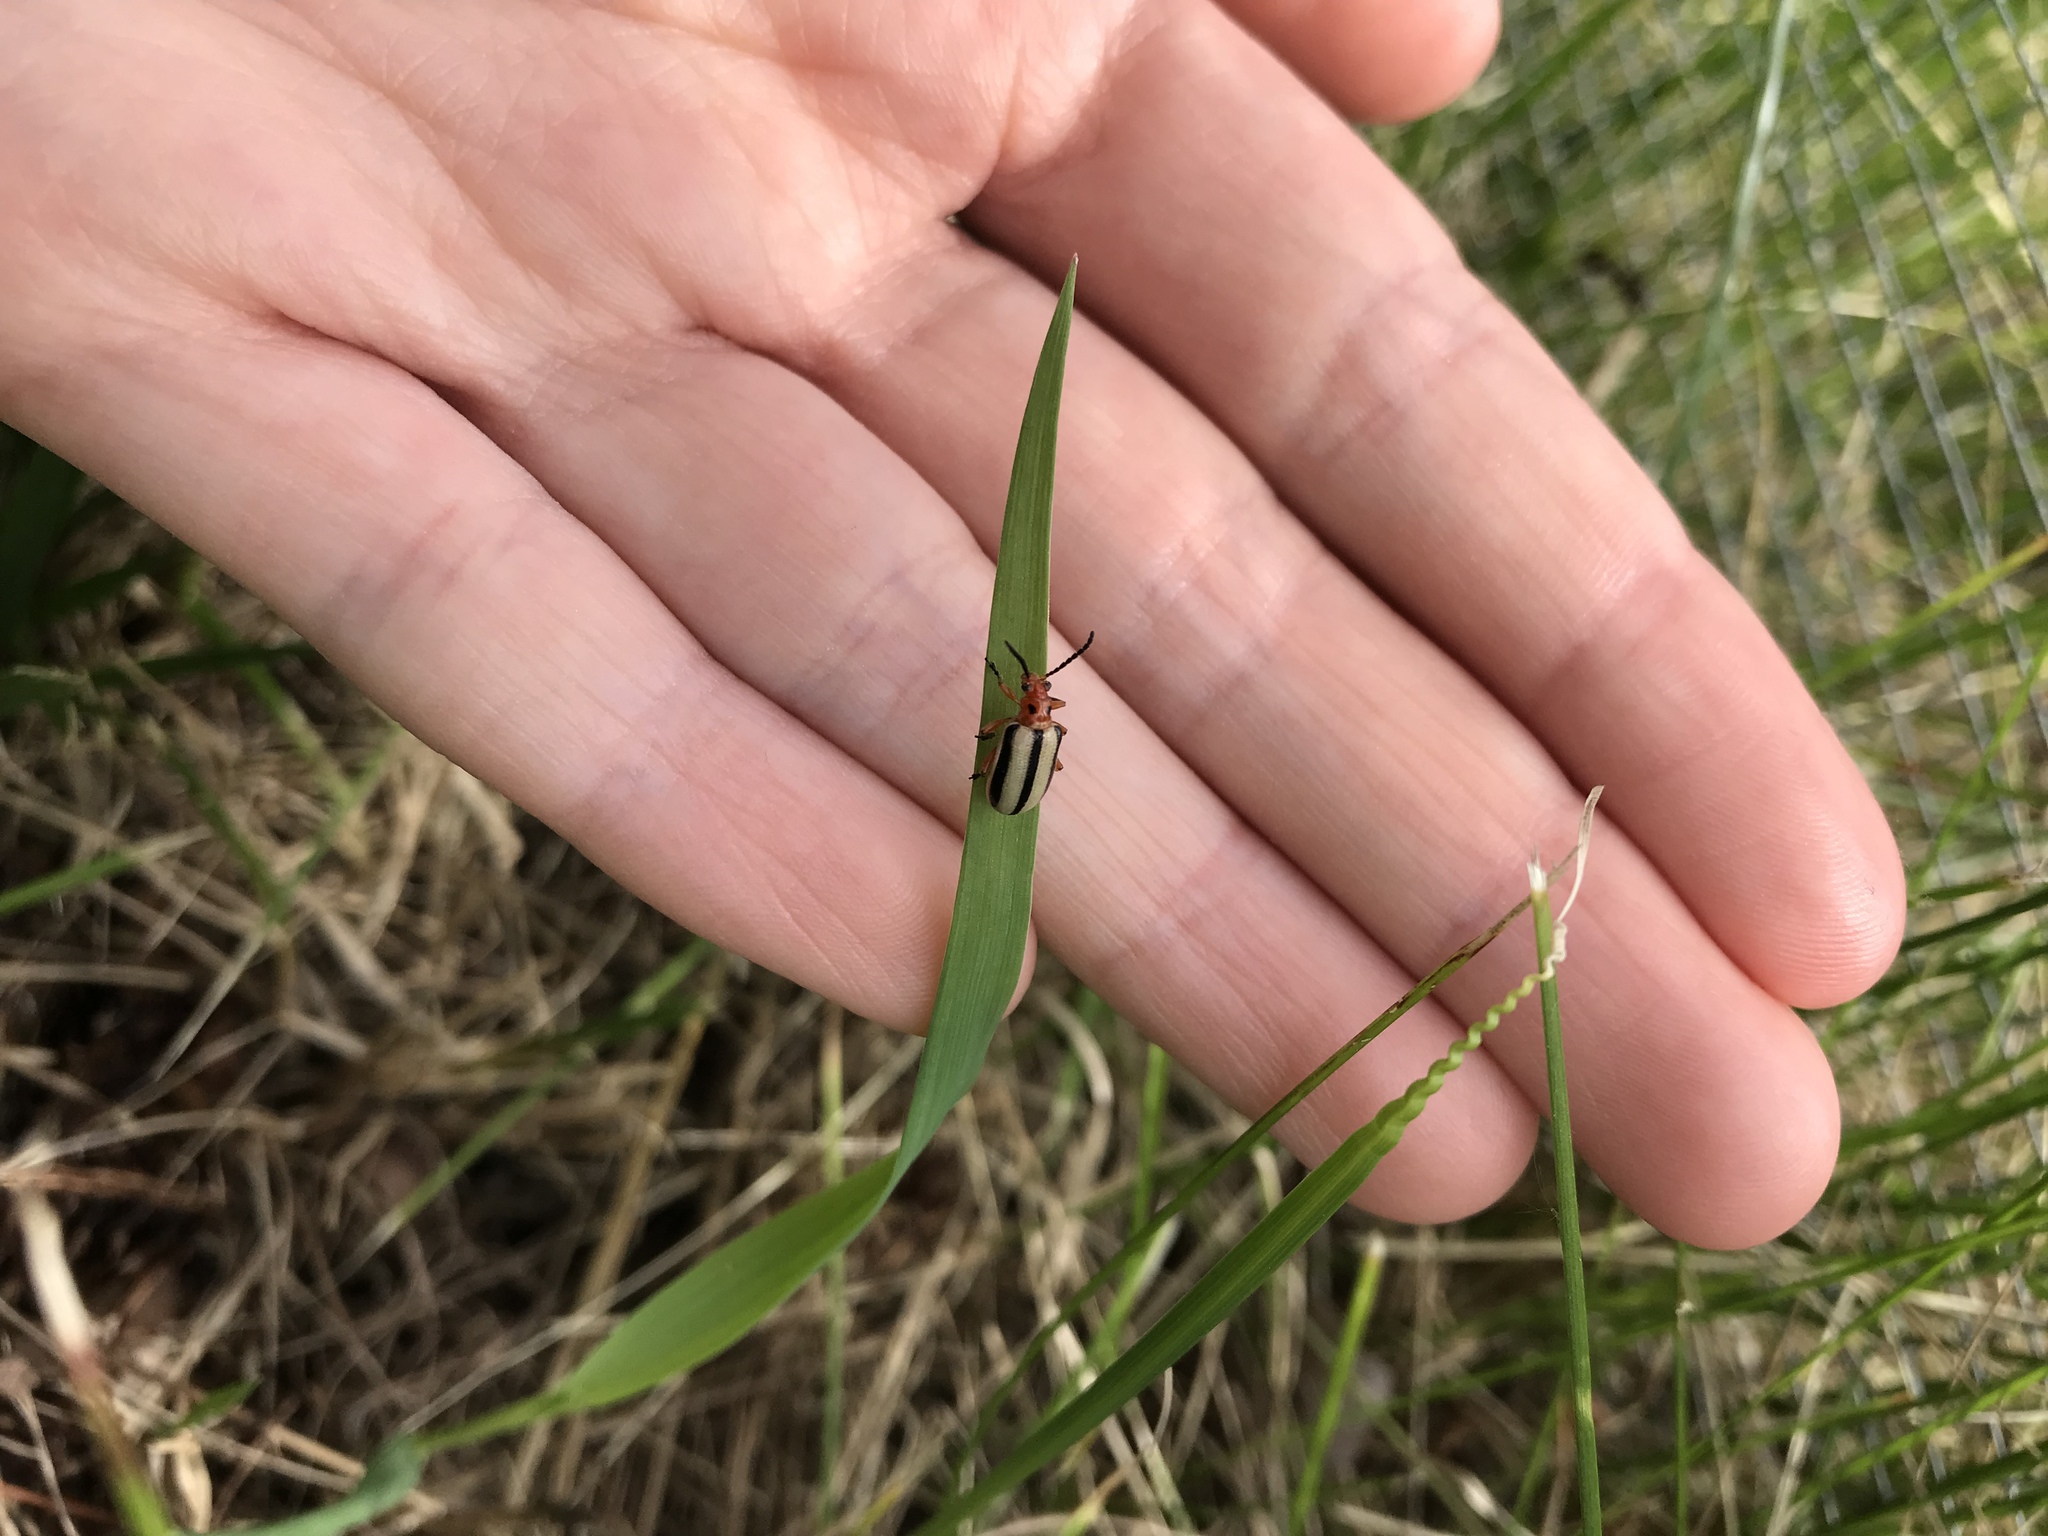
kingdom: Animalia
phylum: Arthropoda
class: Insecta
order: Coleoptera
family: Chrysomelidae
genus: Lema
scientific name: Lema daturaphila
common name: Leaf beetle
